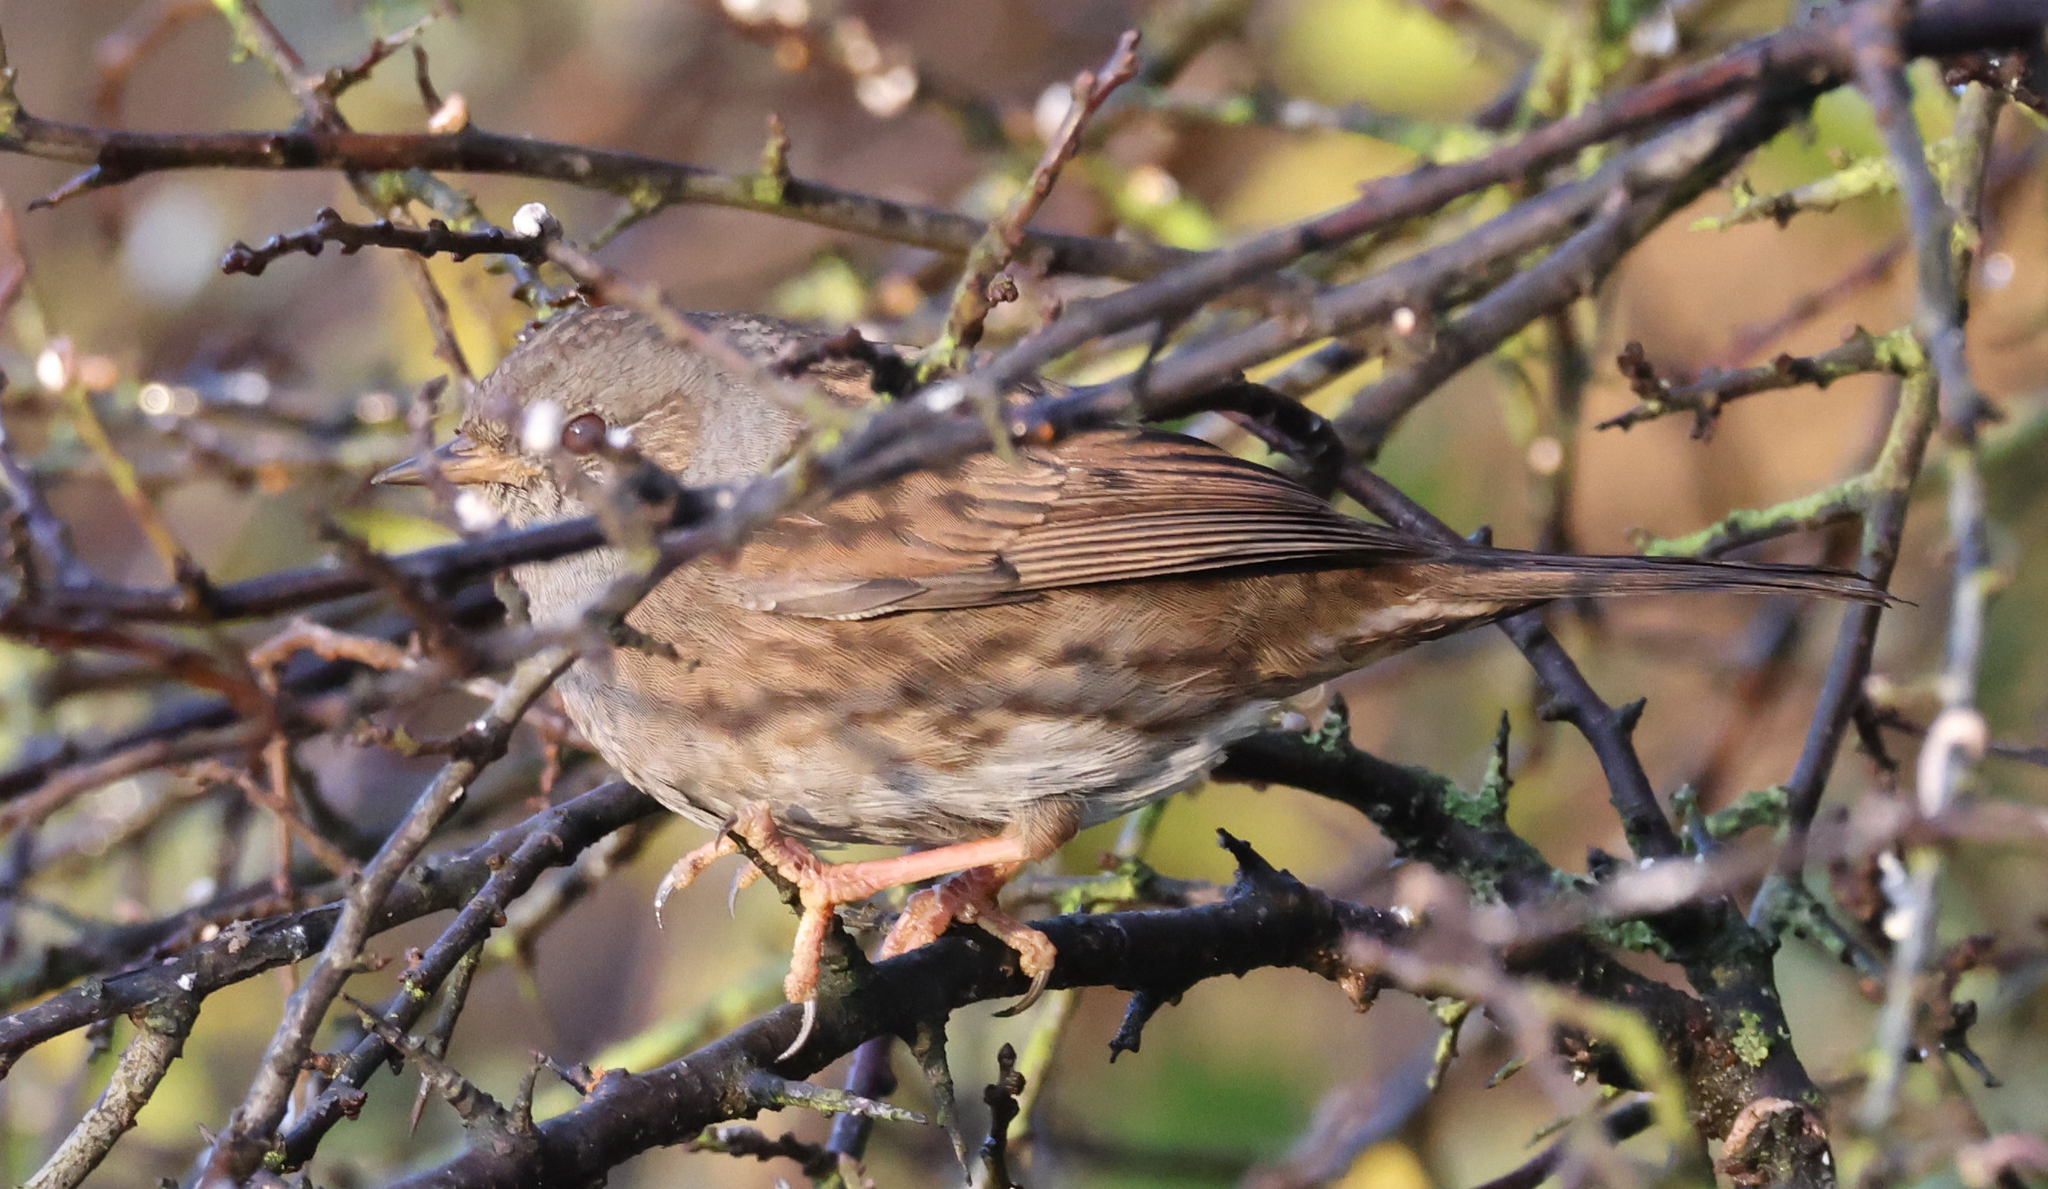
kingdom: Animalia
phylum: Chordata
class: Aves
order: Passeriformes
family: Prunellidae
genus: Prunella
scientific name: Prunella modularis
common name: Dunnock
